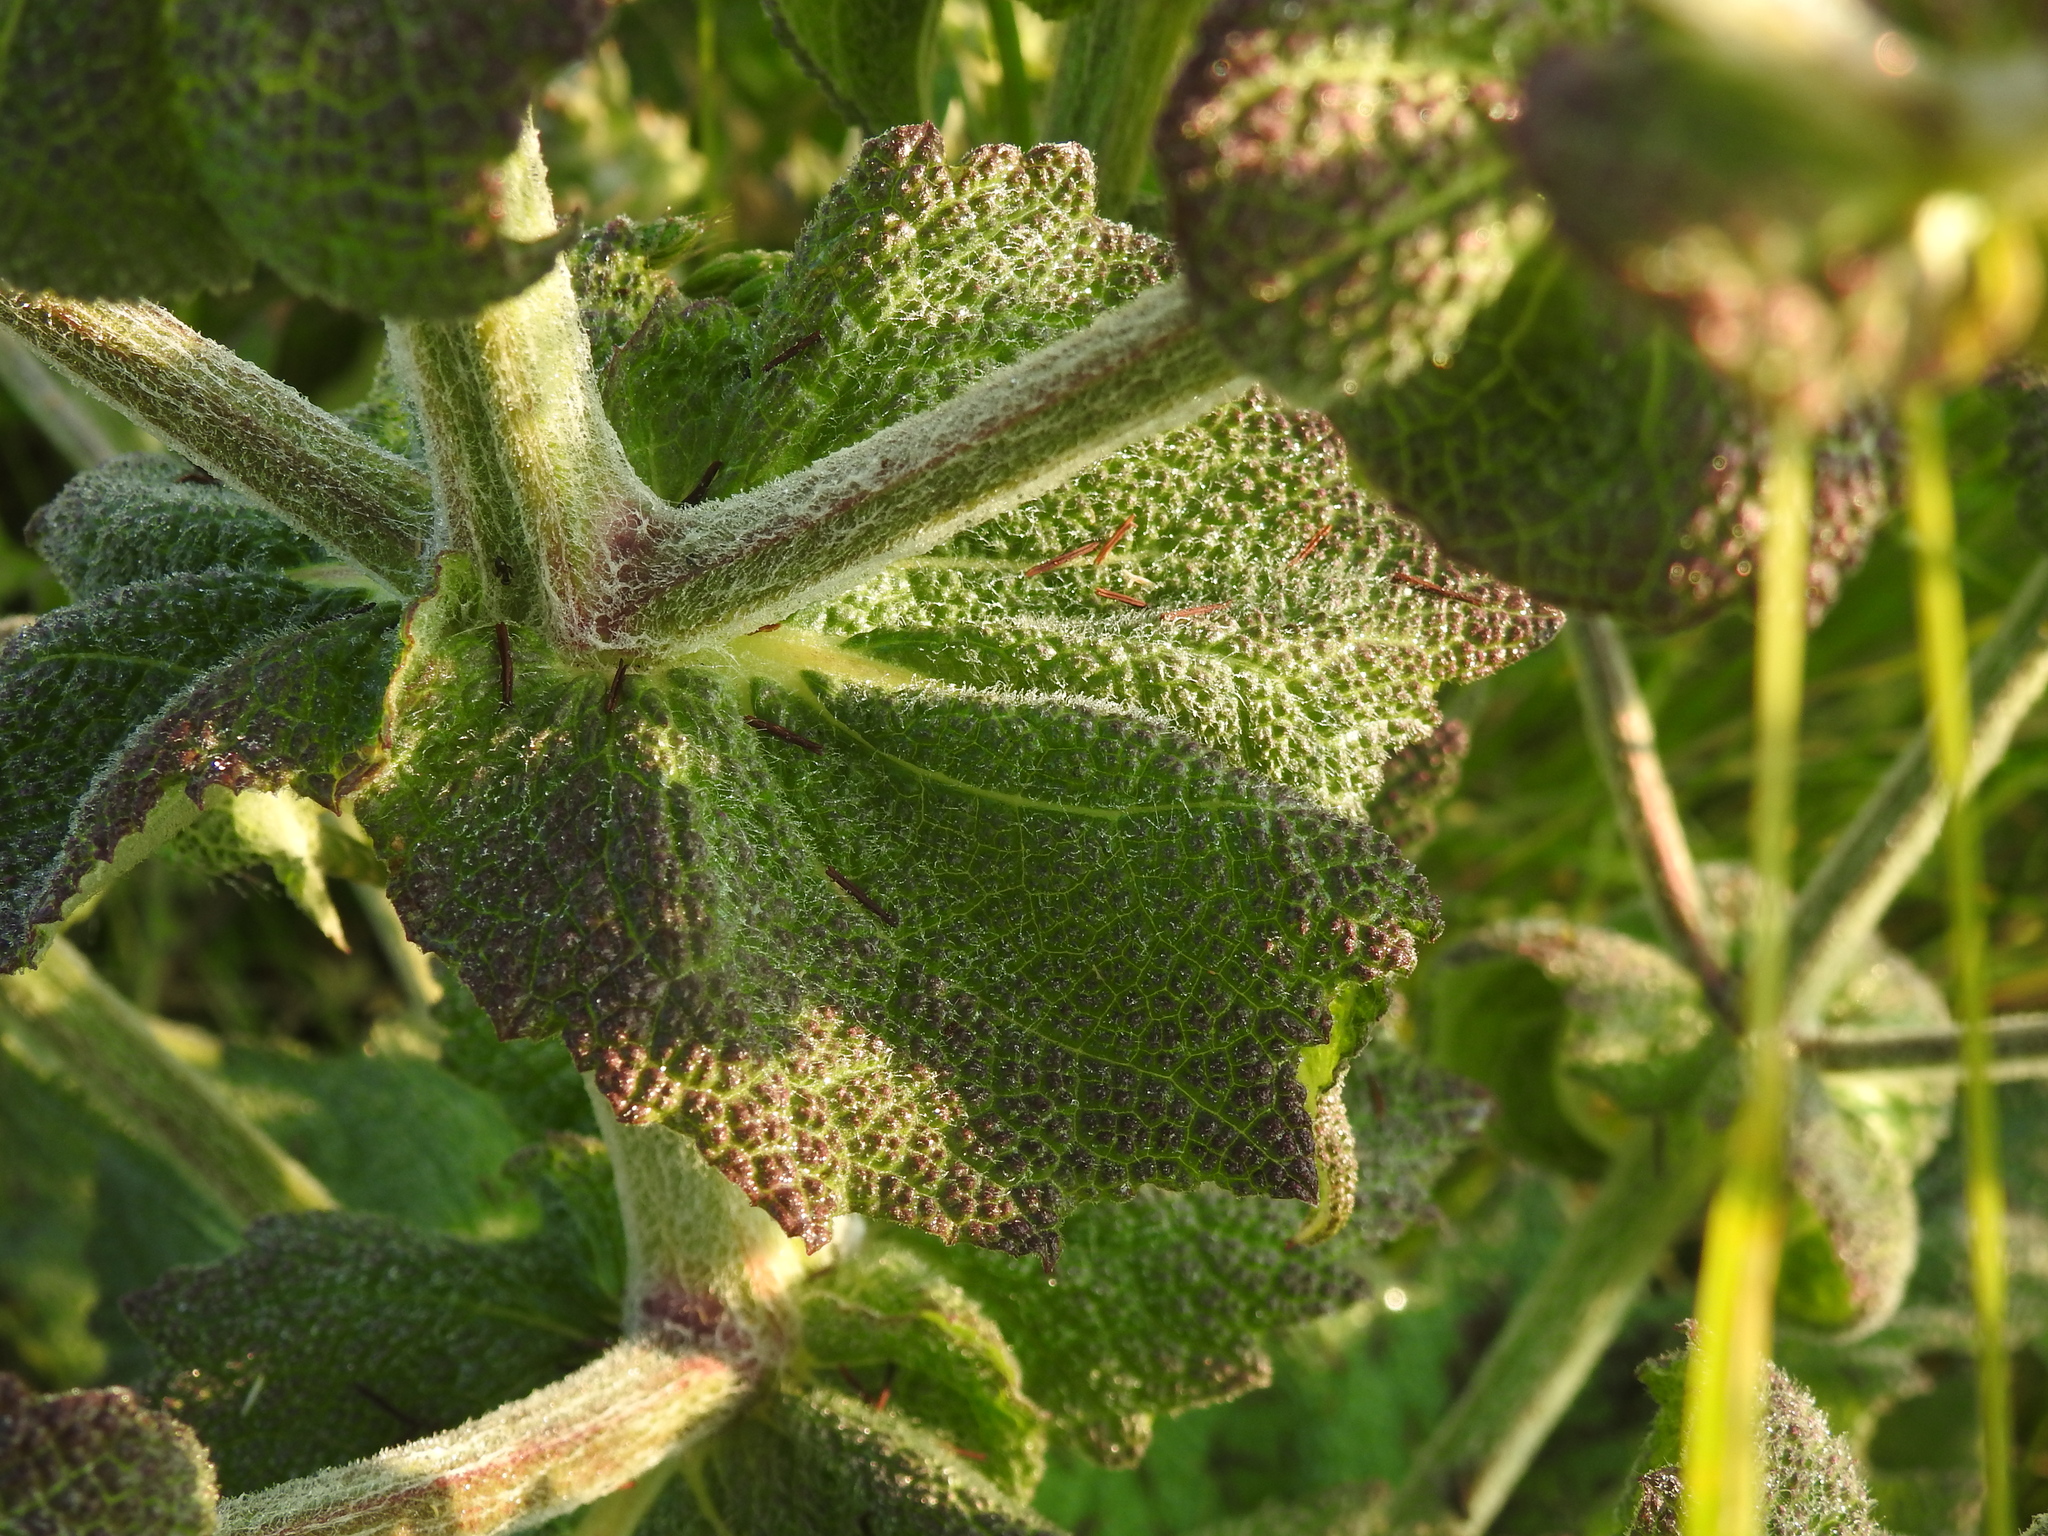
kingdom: Plantae
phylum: Tracheophyta
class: Magnoliopsida
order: Lamiales
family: Lamiaceae
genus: Salvia
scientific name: Salvia aethiopis
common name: Mediterranean sage
